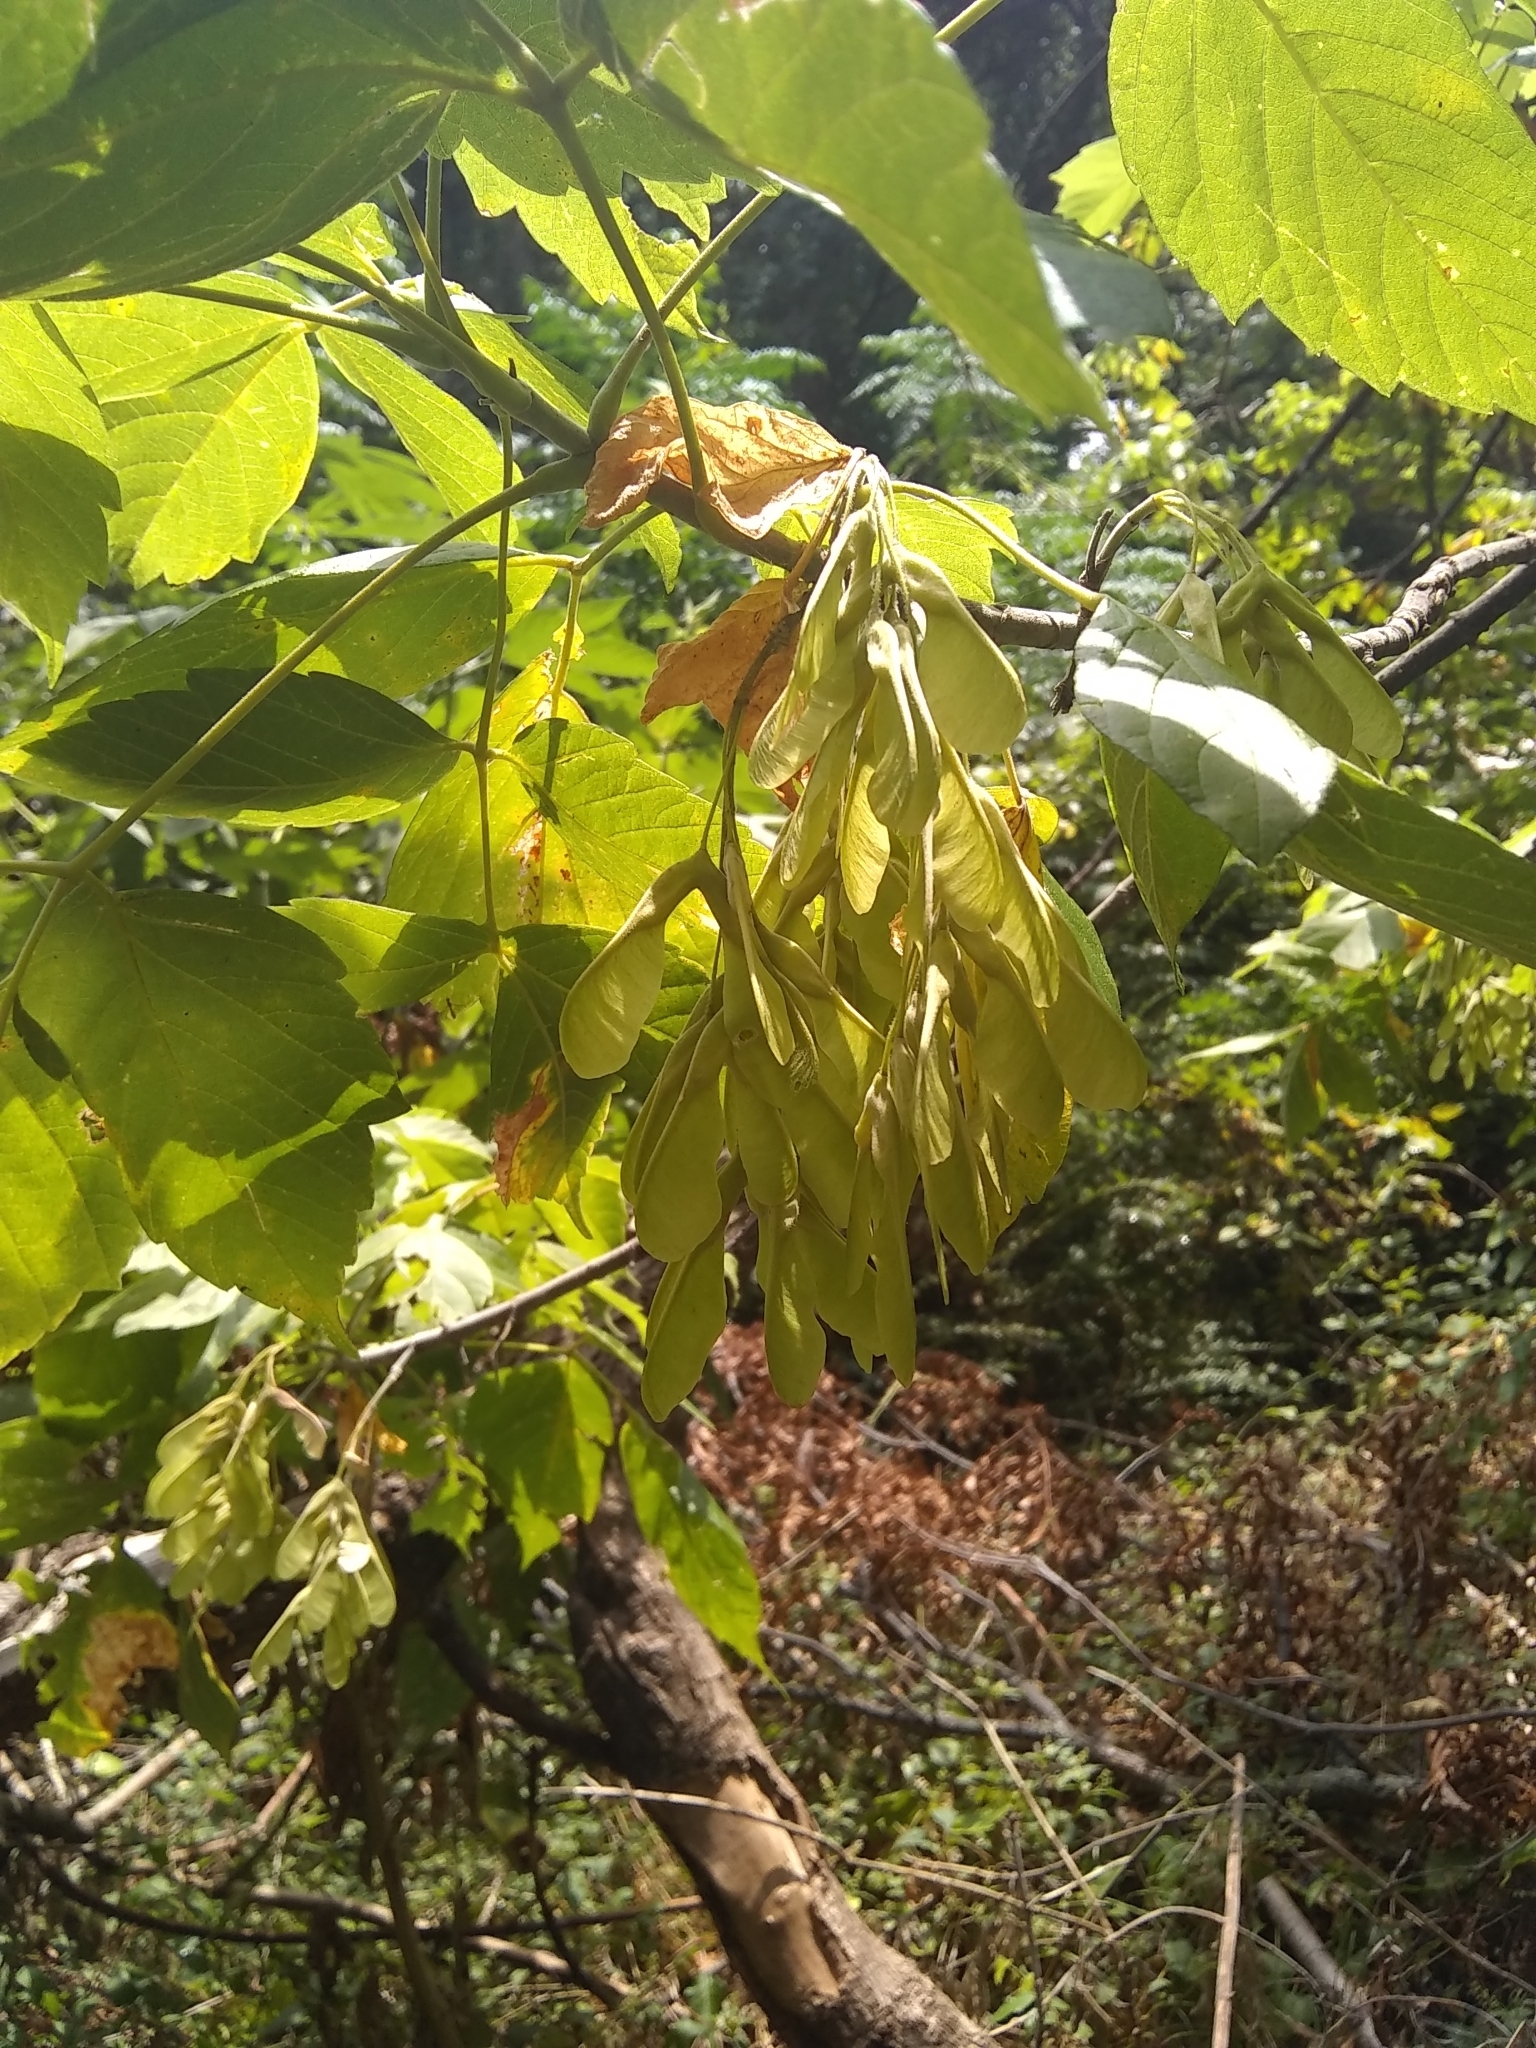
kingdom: Plantae
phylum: Tracheophyta
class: Magnoliopsida
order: Sapindales
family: Sapindaceae
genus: Acer
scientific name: Acer negundo
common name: Ashleaf maple
